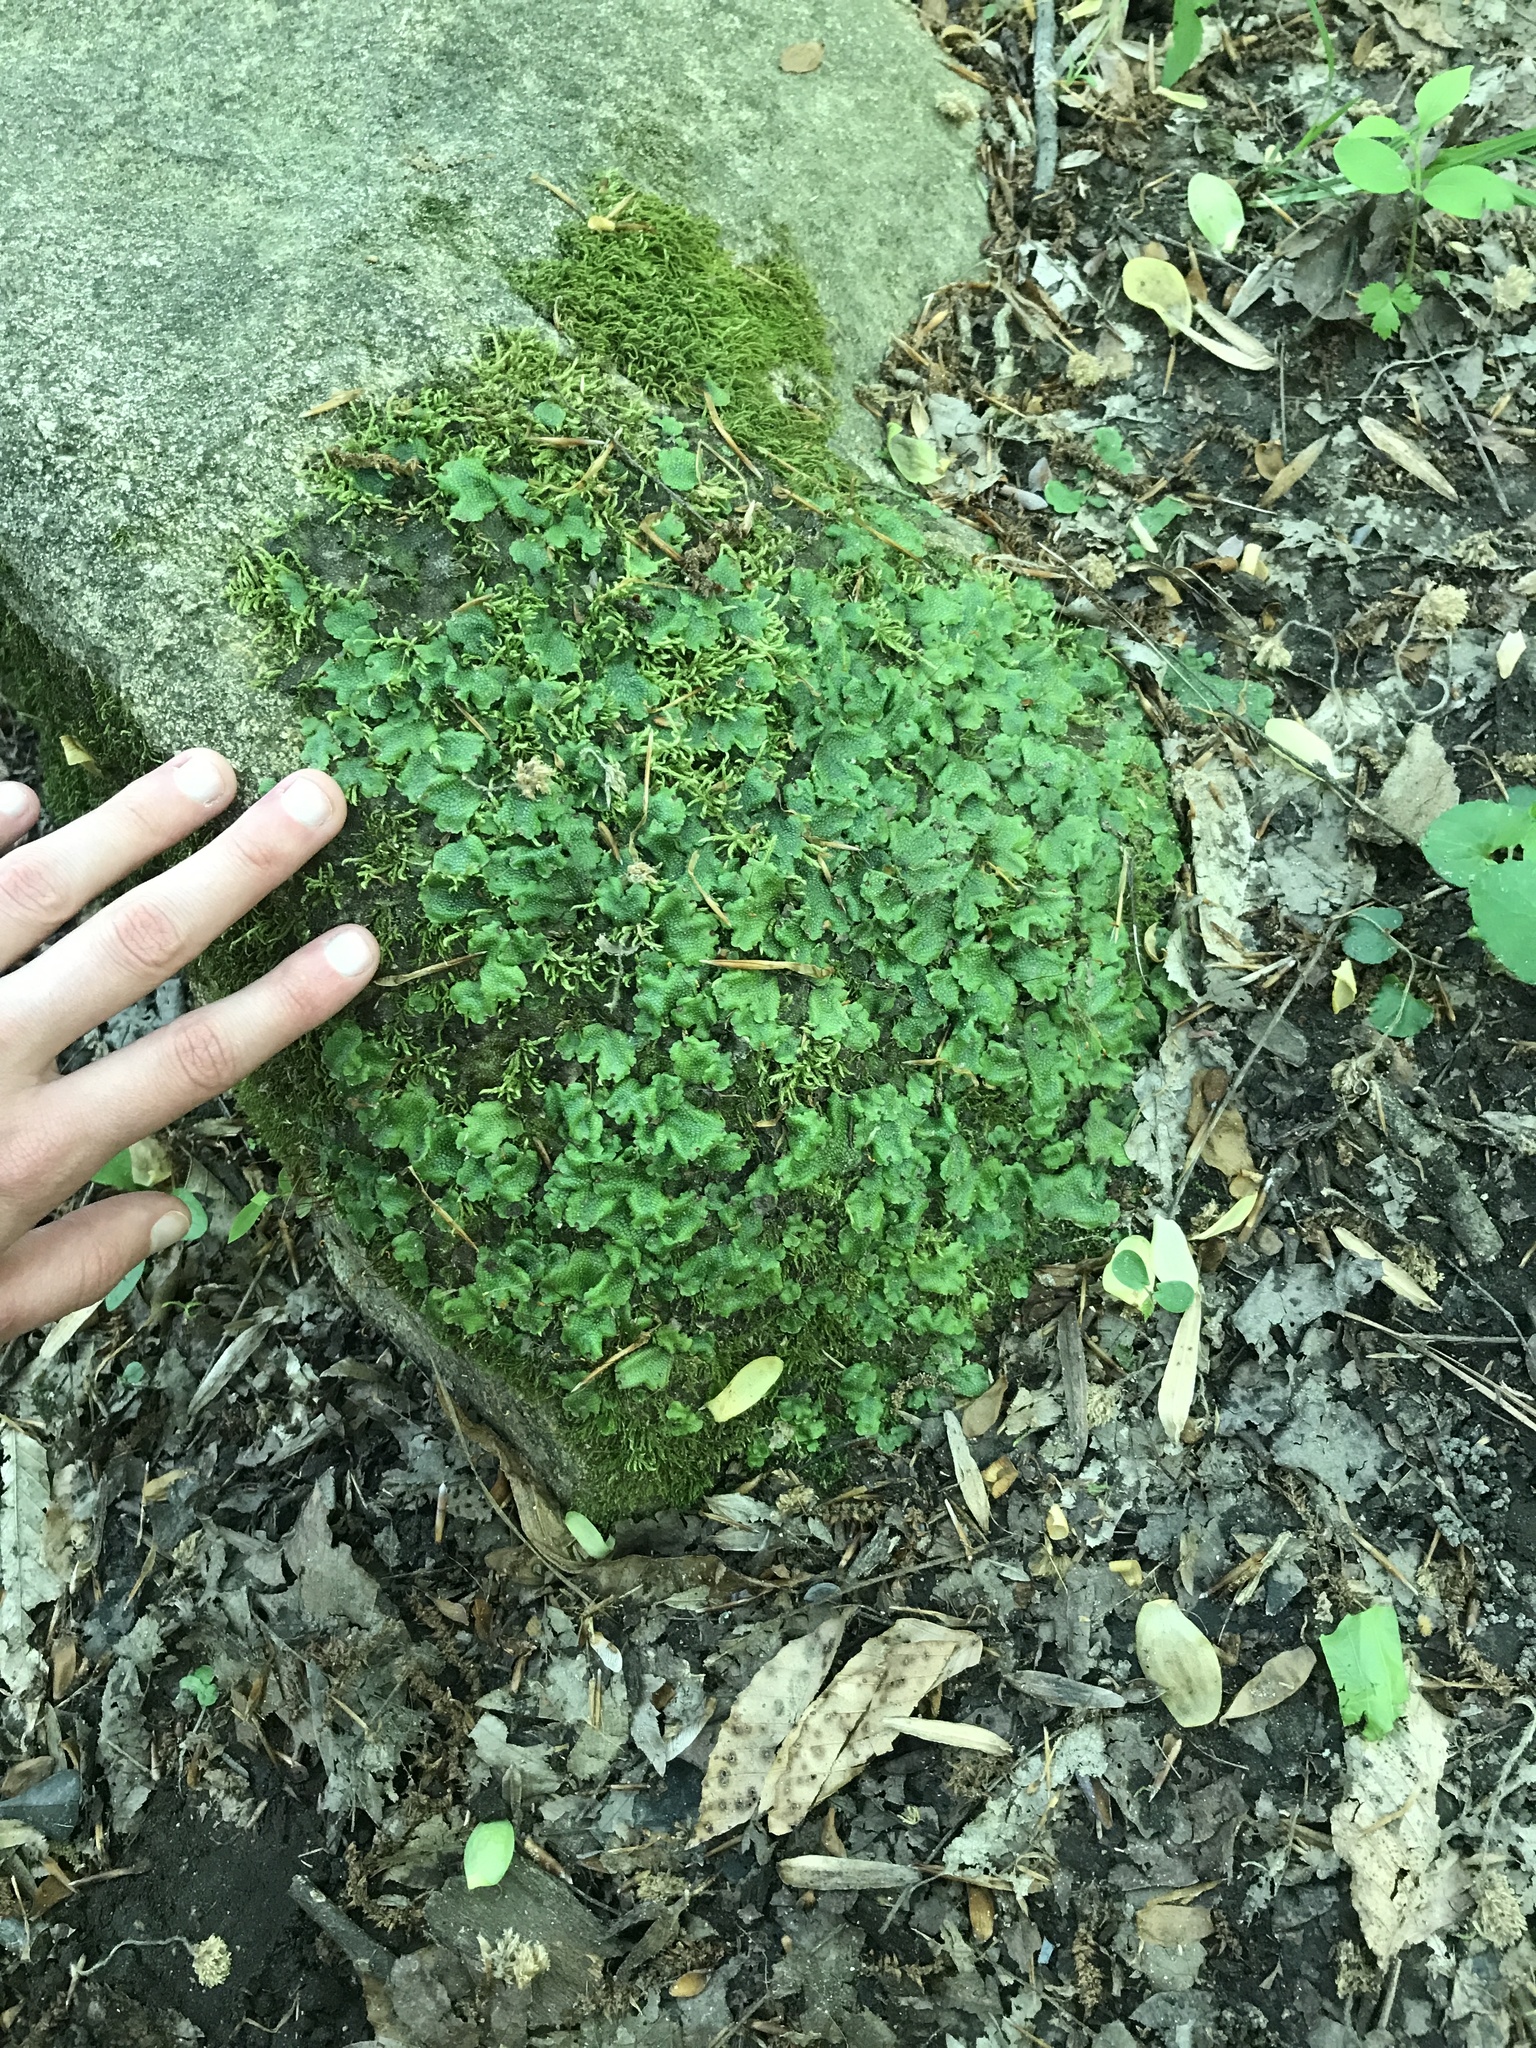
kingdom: Plantae
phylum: Marchantiophyta
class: Marchantiopsida
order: Marchantiales
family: Conocephalaceae
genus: Conocephalum
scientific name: Conocephalum salebrosum
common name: Cat-tongue liverwort
